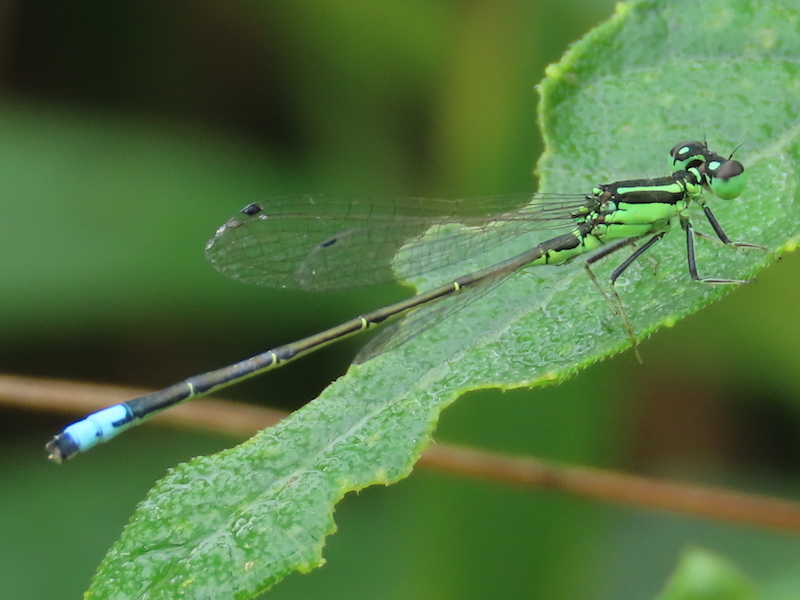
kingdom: Animalia
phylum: Arthropoda
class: Insecta
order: Odonata
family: Coenagrionidae
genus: Ischnura
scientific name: Ischnura verticalis
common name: Eastern forktail
